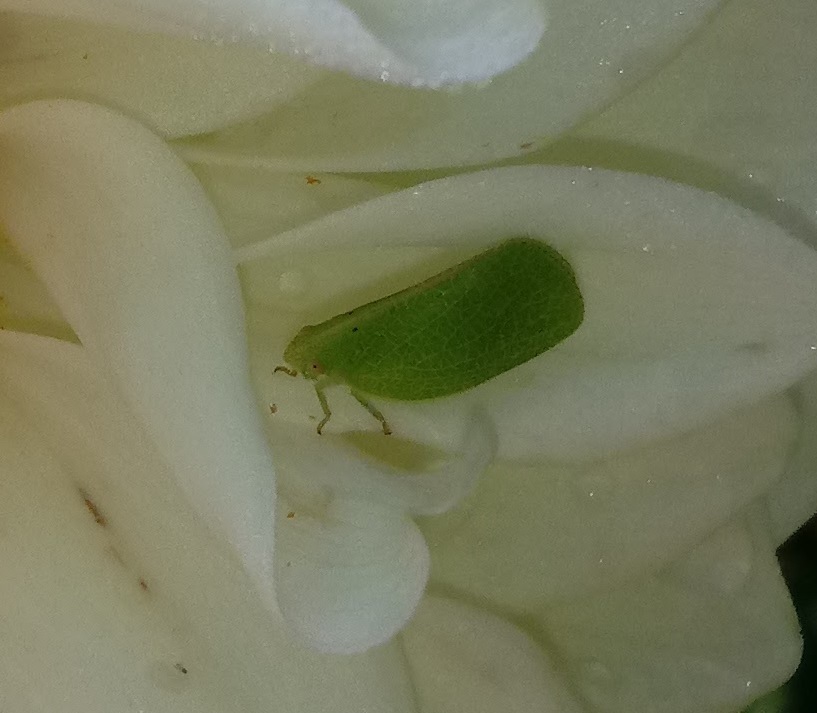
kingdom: Animalia
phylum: Arthropoda
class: Insecta
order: Hemiptera
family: Acanaloniidae
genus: Acanalonia
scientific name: Acanalonia conica
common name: Green cone-headed planthopper
